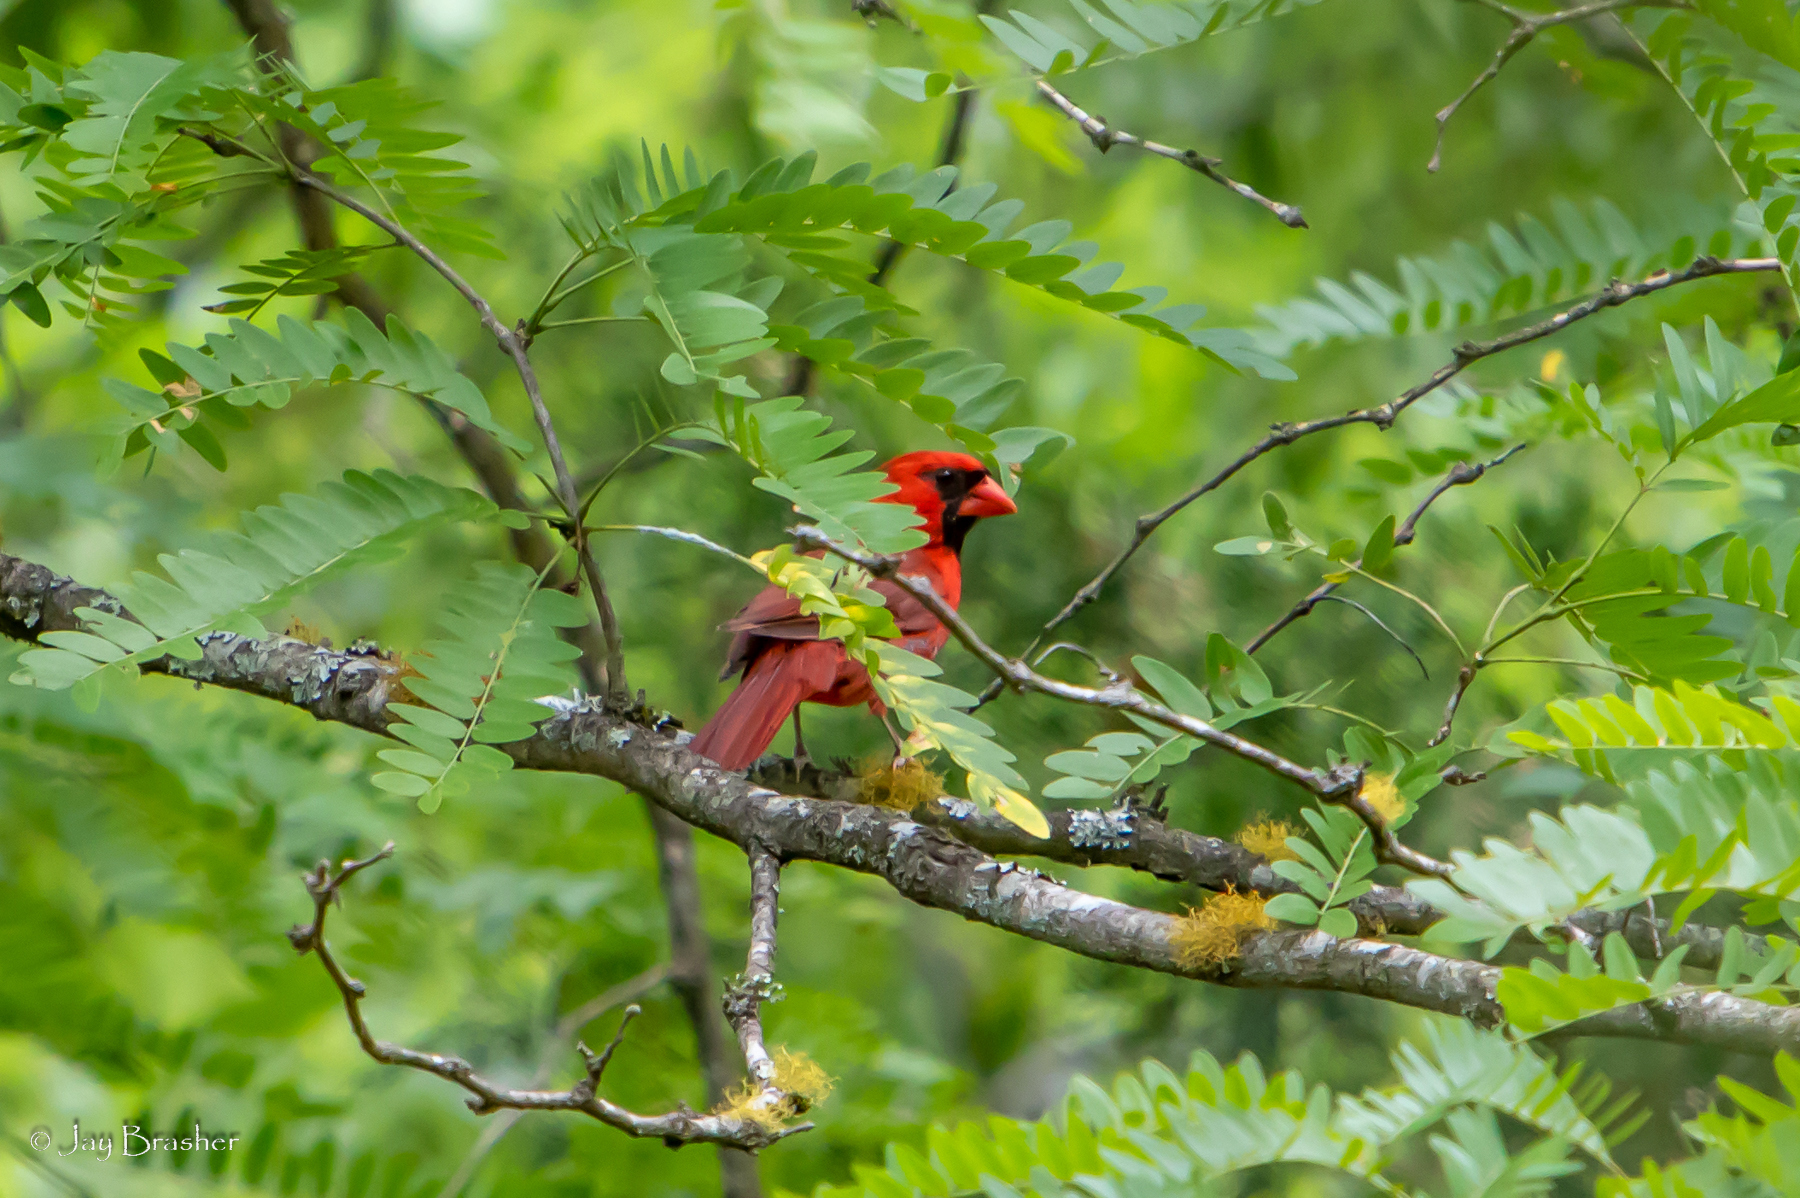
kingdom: Animalia
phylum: Chordata
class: Aves
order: Passeriformes
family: Cardinalidae
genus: Cardinalis
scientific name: Cardinalis cardinalis
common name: Northern cardinal
